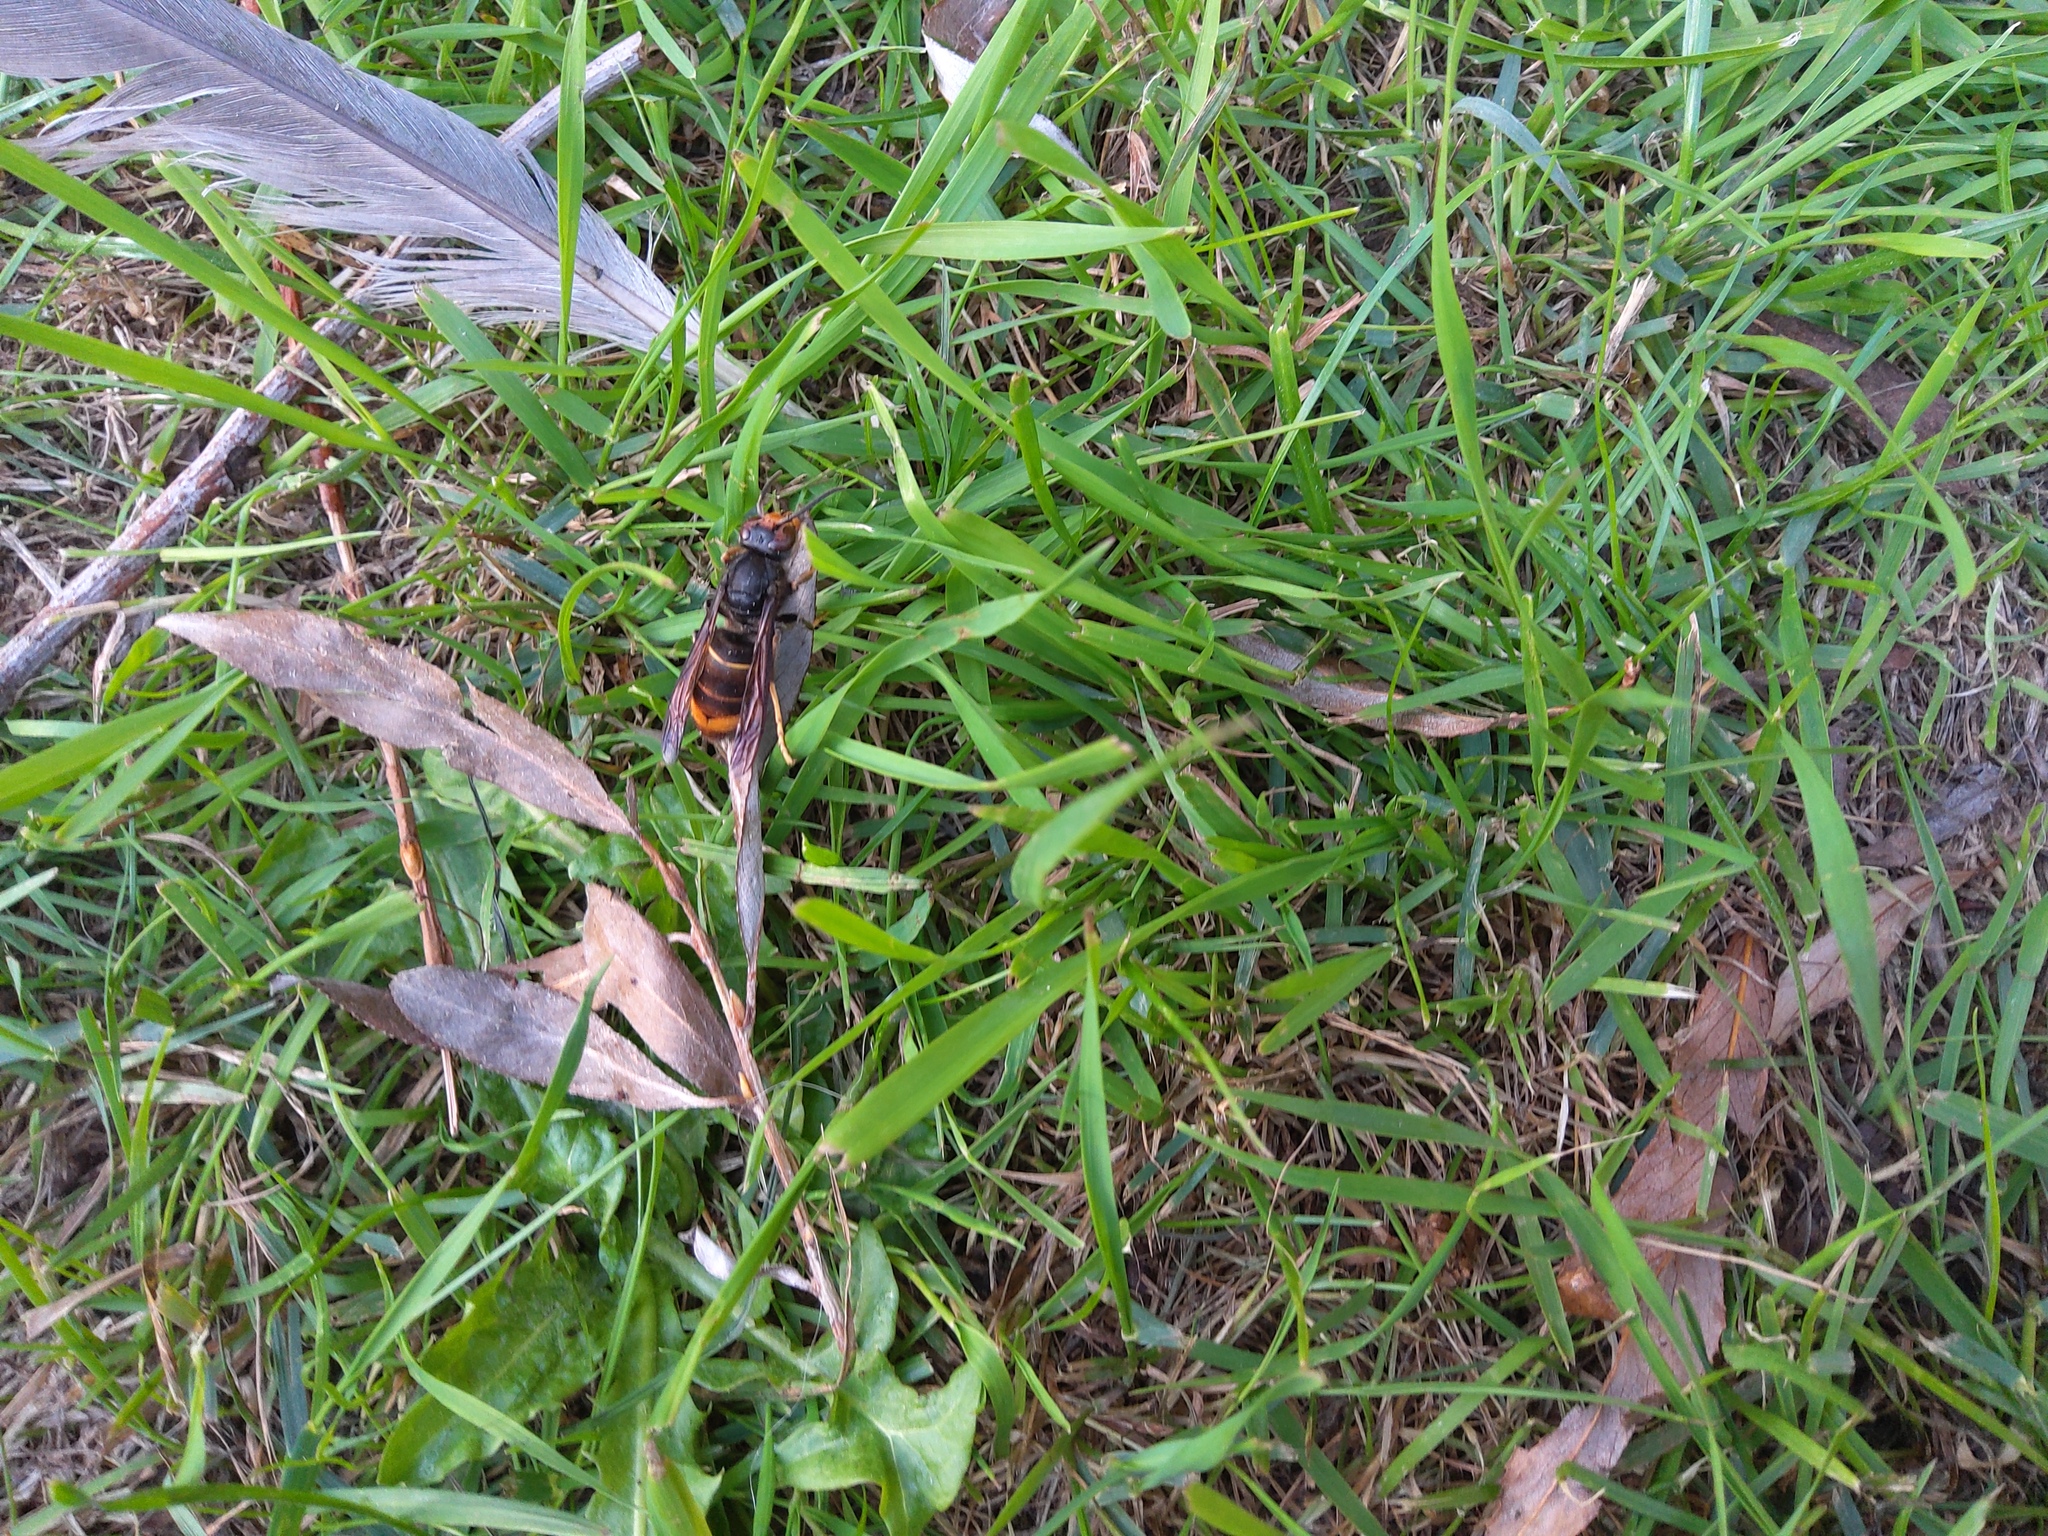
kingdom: Animalia
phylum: Arthropoda
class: Insecta
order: Hymenoptera
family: Vespidae
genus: Vespa
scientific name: Vespa velutina
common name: Asian hornet
